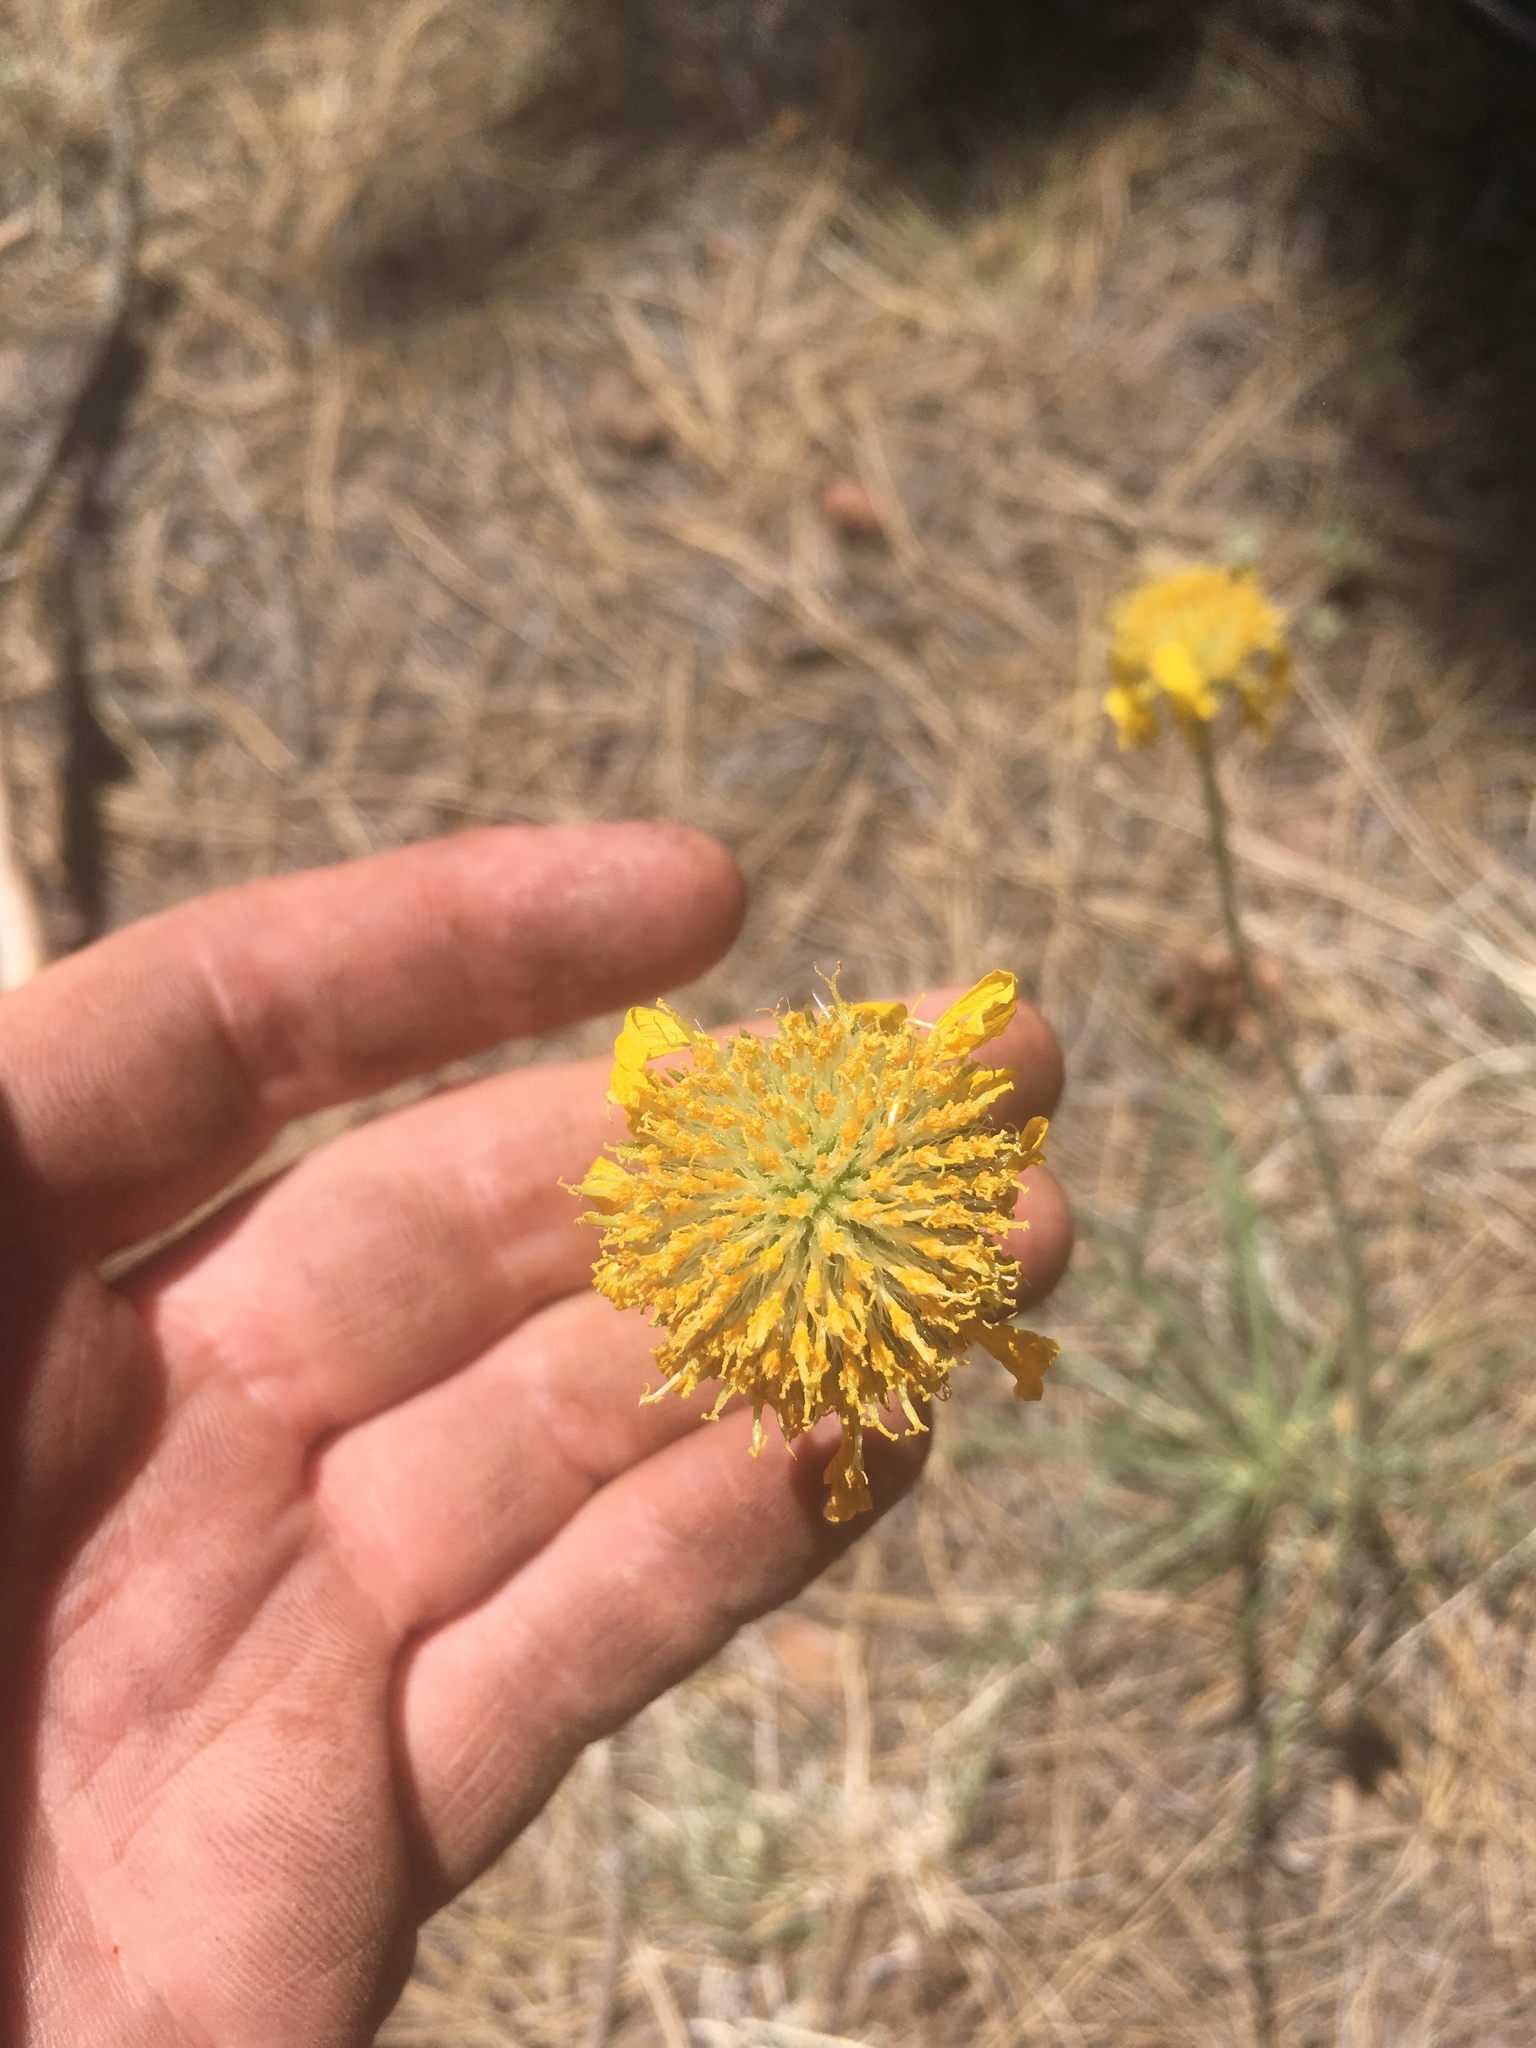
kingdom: Plantae
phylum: Tracheophyta
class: Magnoliopsida
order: Asterales
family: Asteraceae
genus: Hymenoxys
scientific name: Hymenoxys bigelovii
